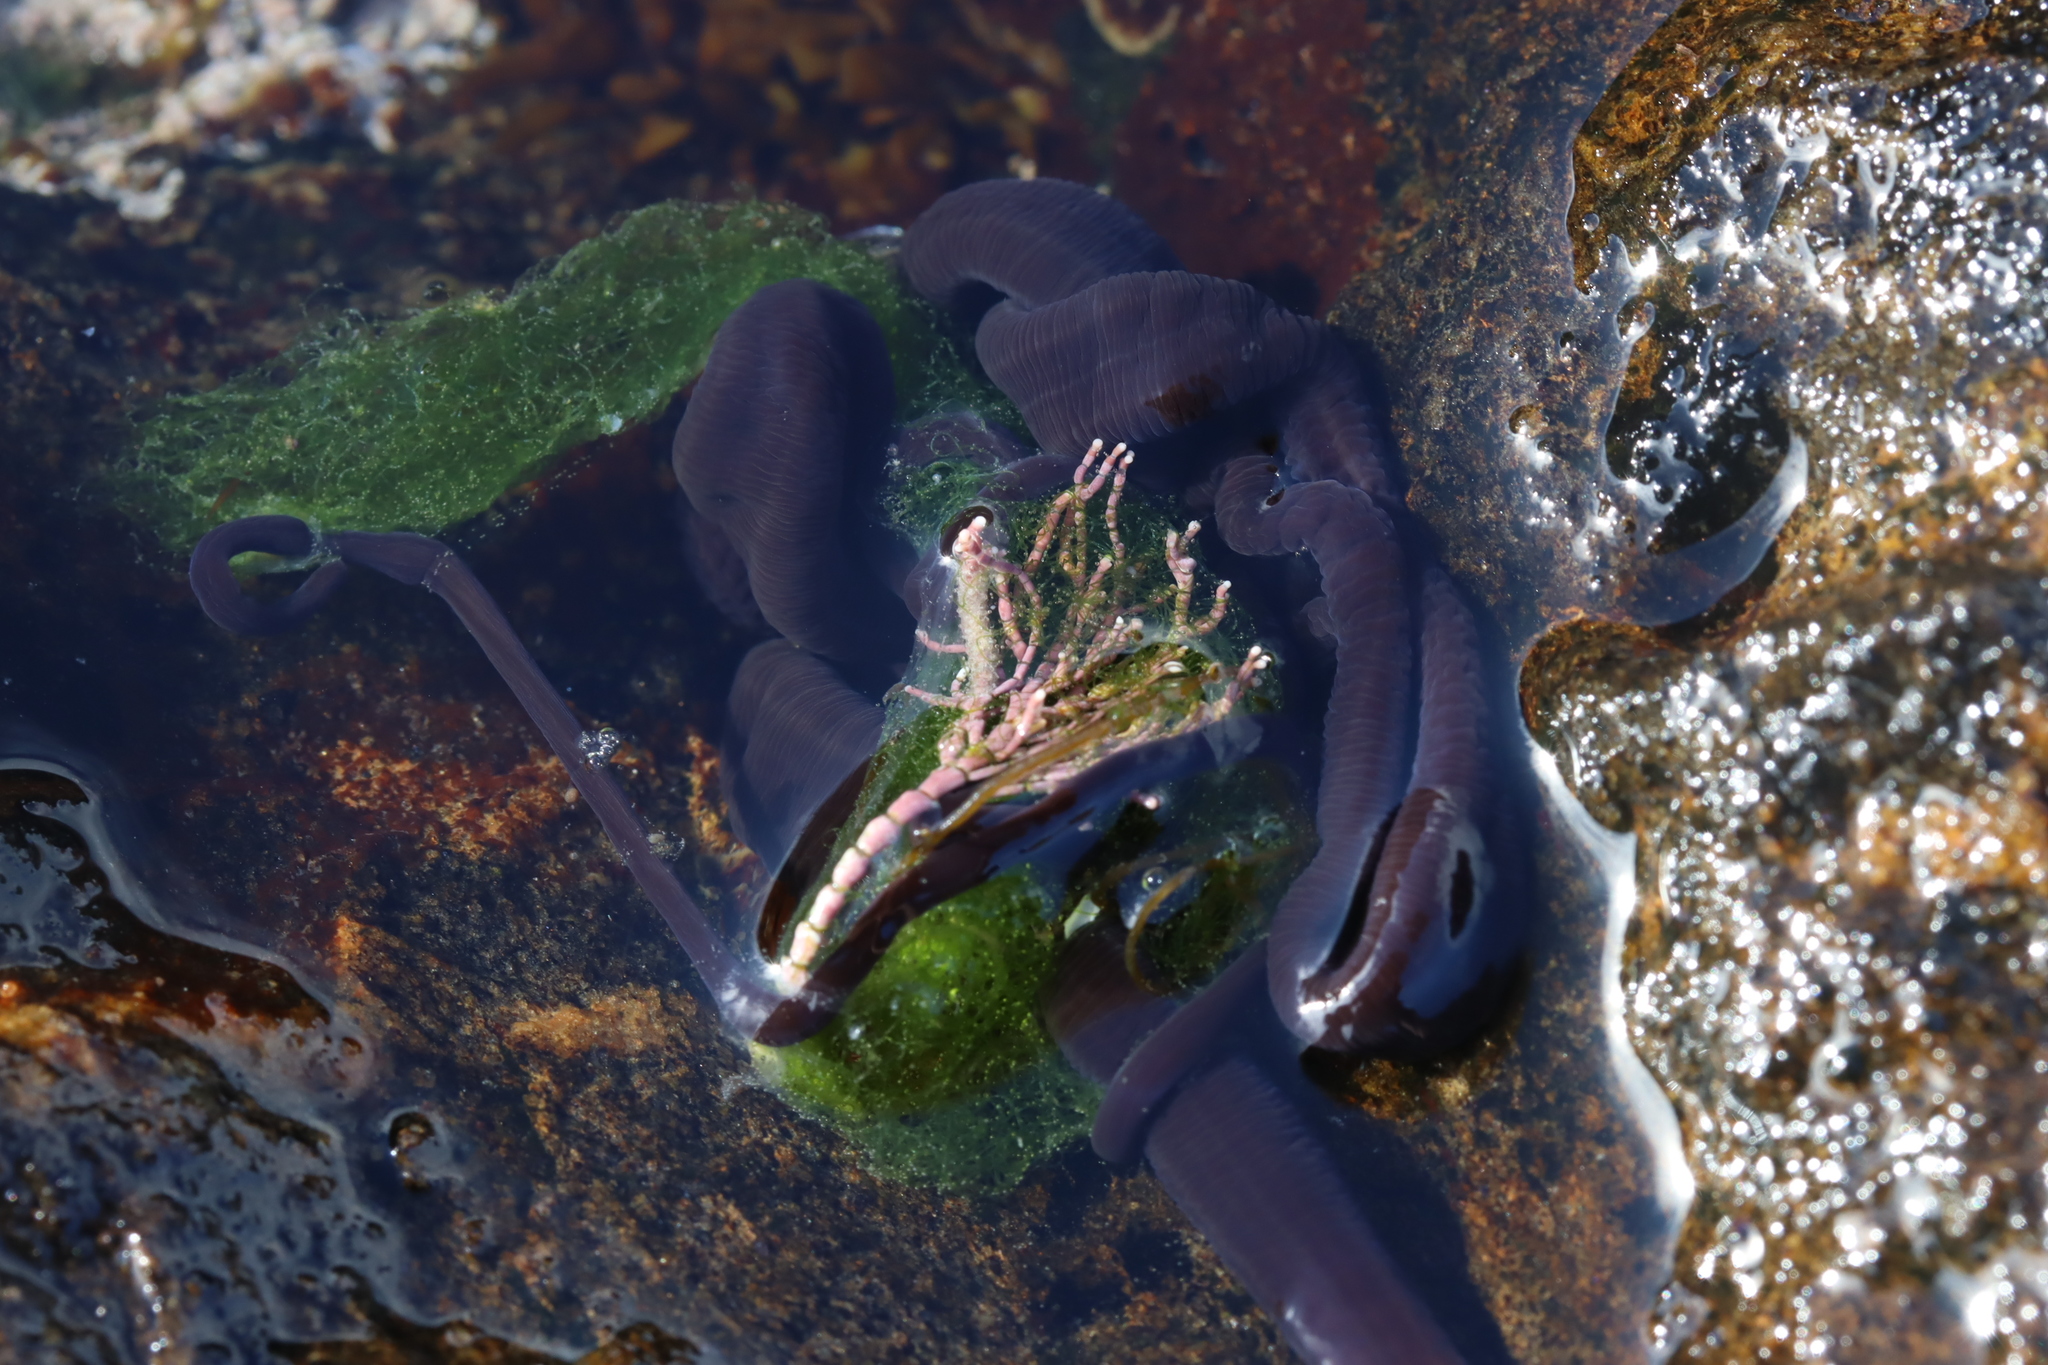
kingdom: Animalia
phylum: Nemertea
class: Pilidiophora
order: Heteronemertea
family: Lineidae
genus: Lineus
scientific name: Lineus longissimus
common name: Bootlace worm
